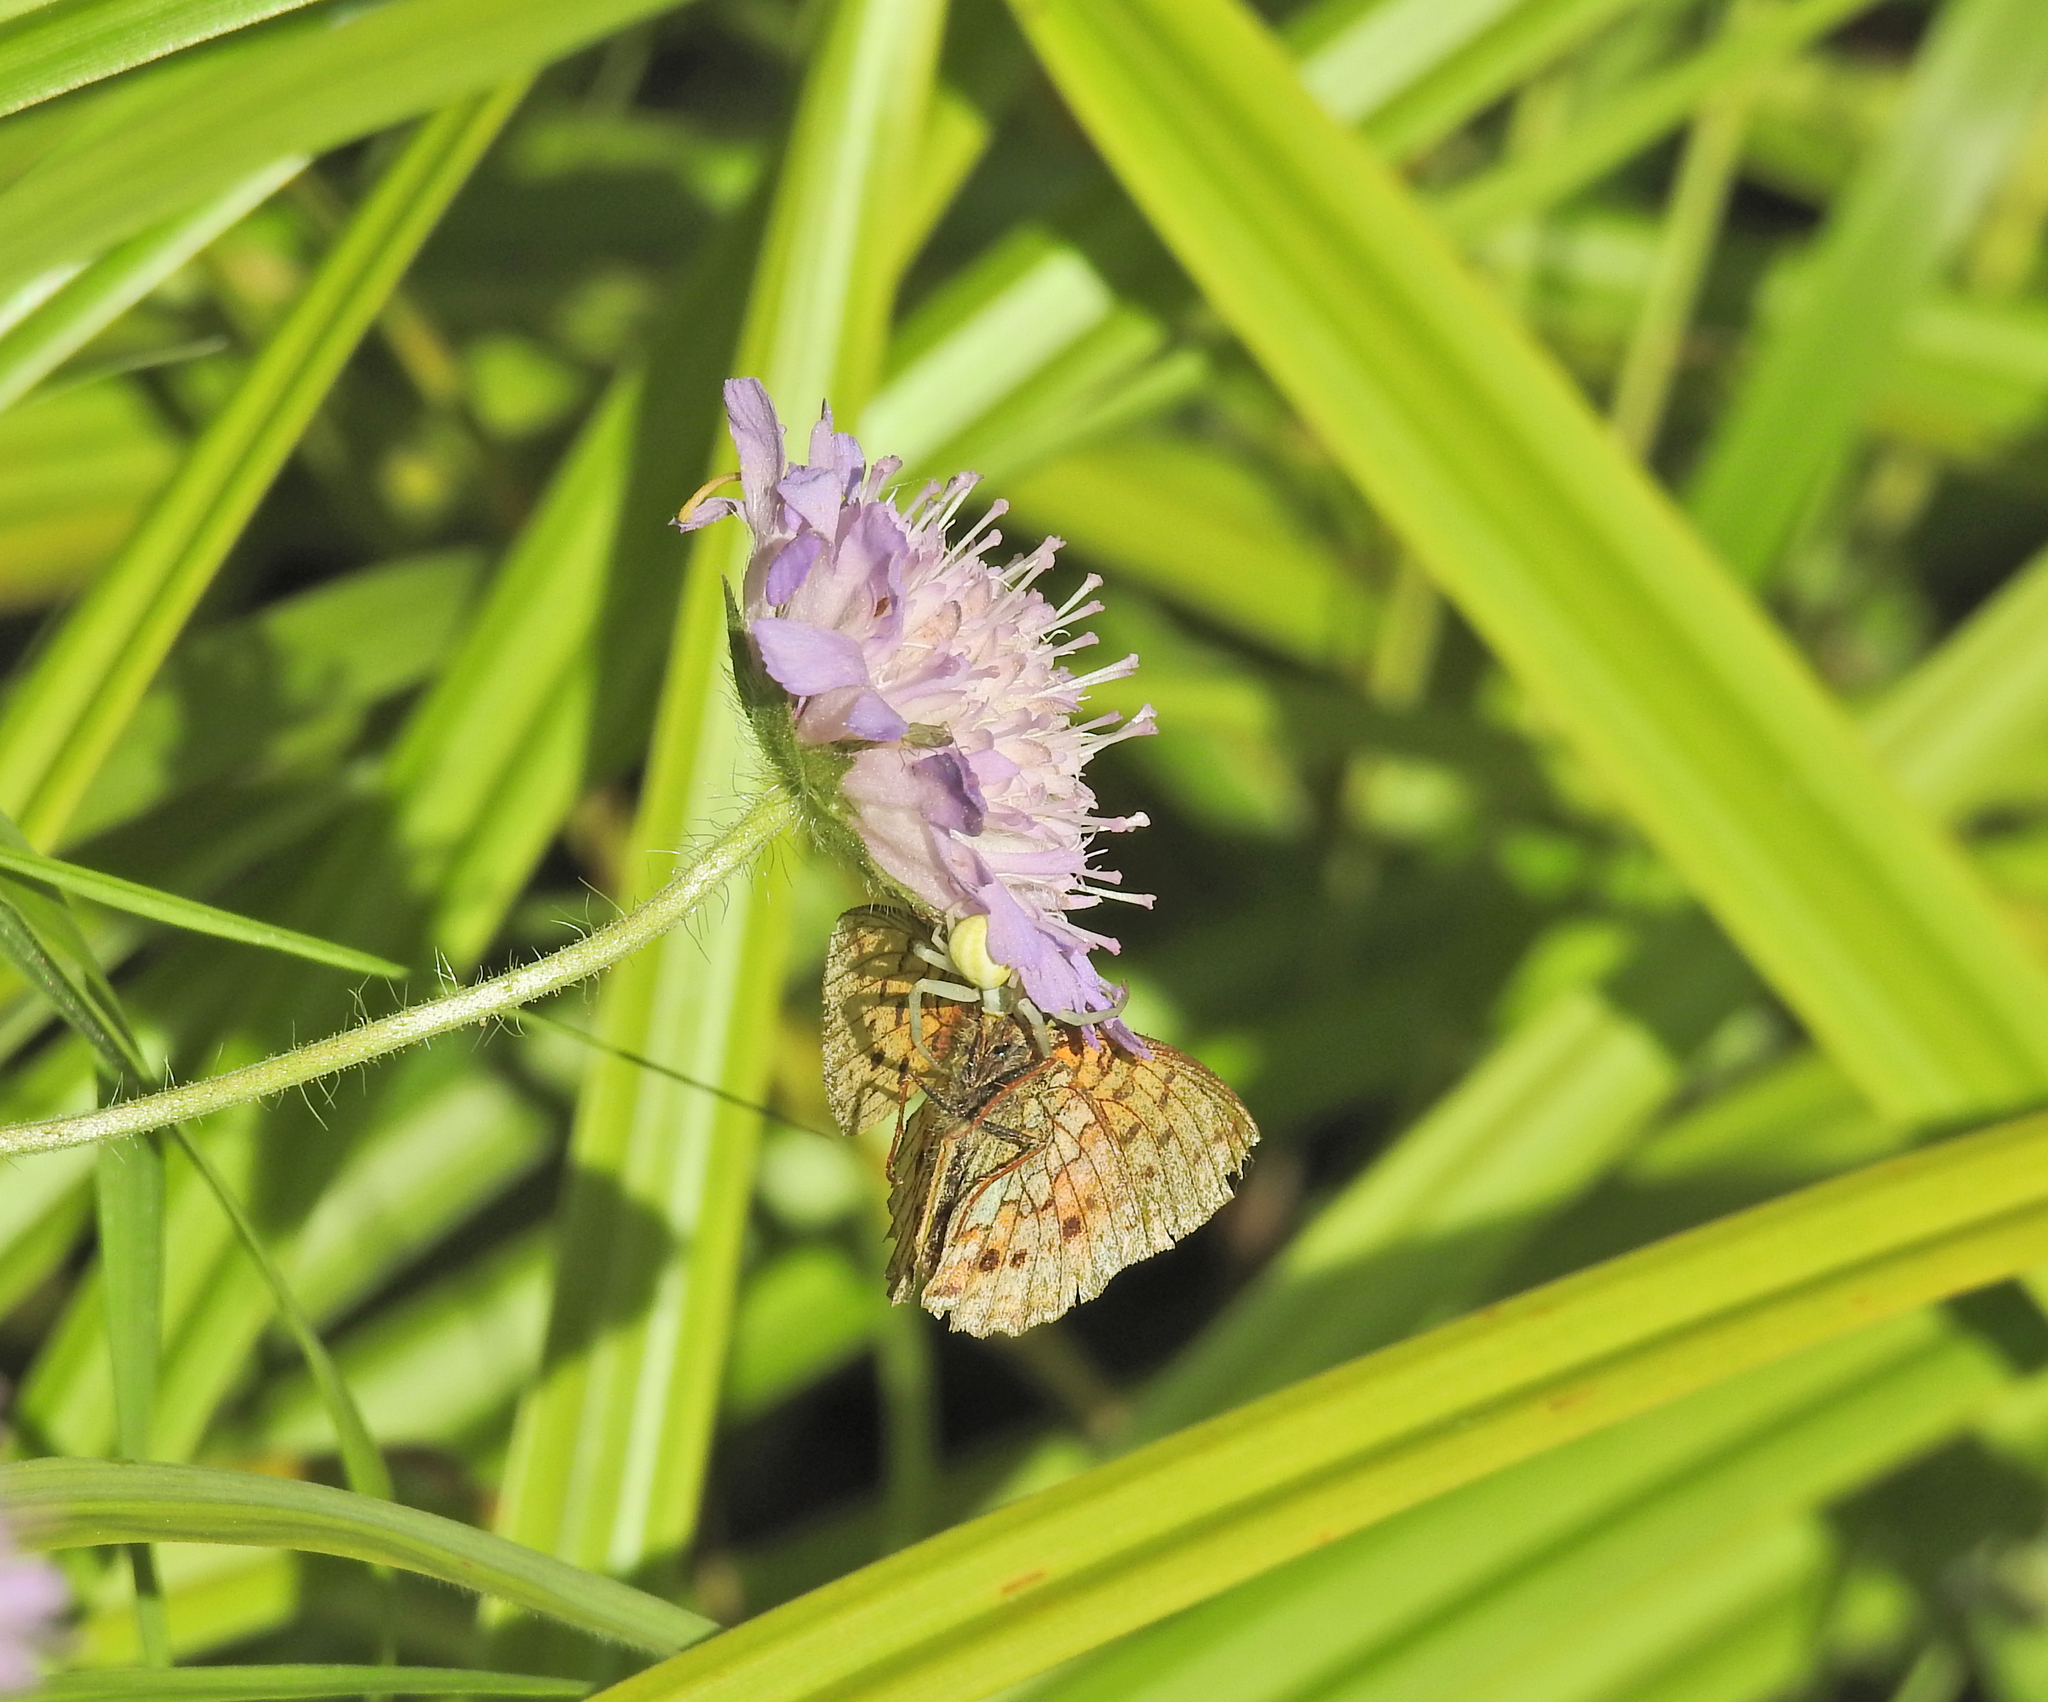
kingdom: Animalia
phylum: Arthropoda
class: Arachnida
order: Araneae
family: Thomisidae
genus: Misumena
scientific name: Misumena vatia
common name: Goldenrod crab spider
